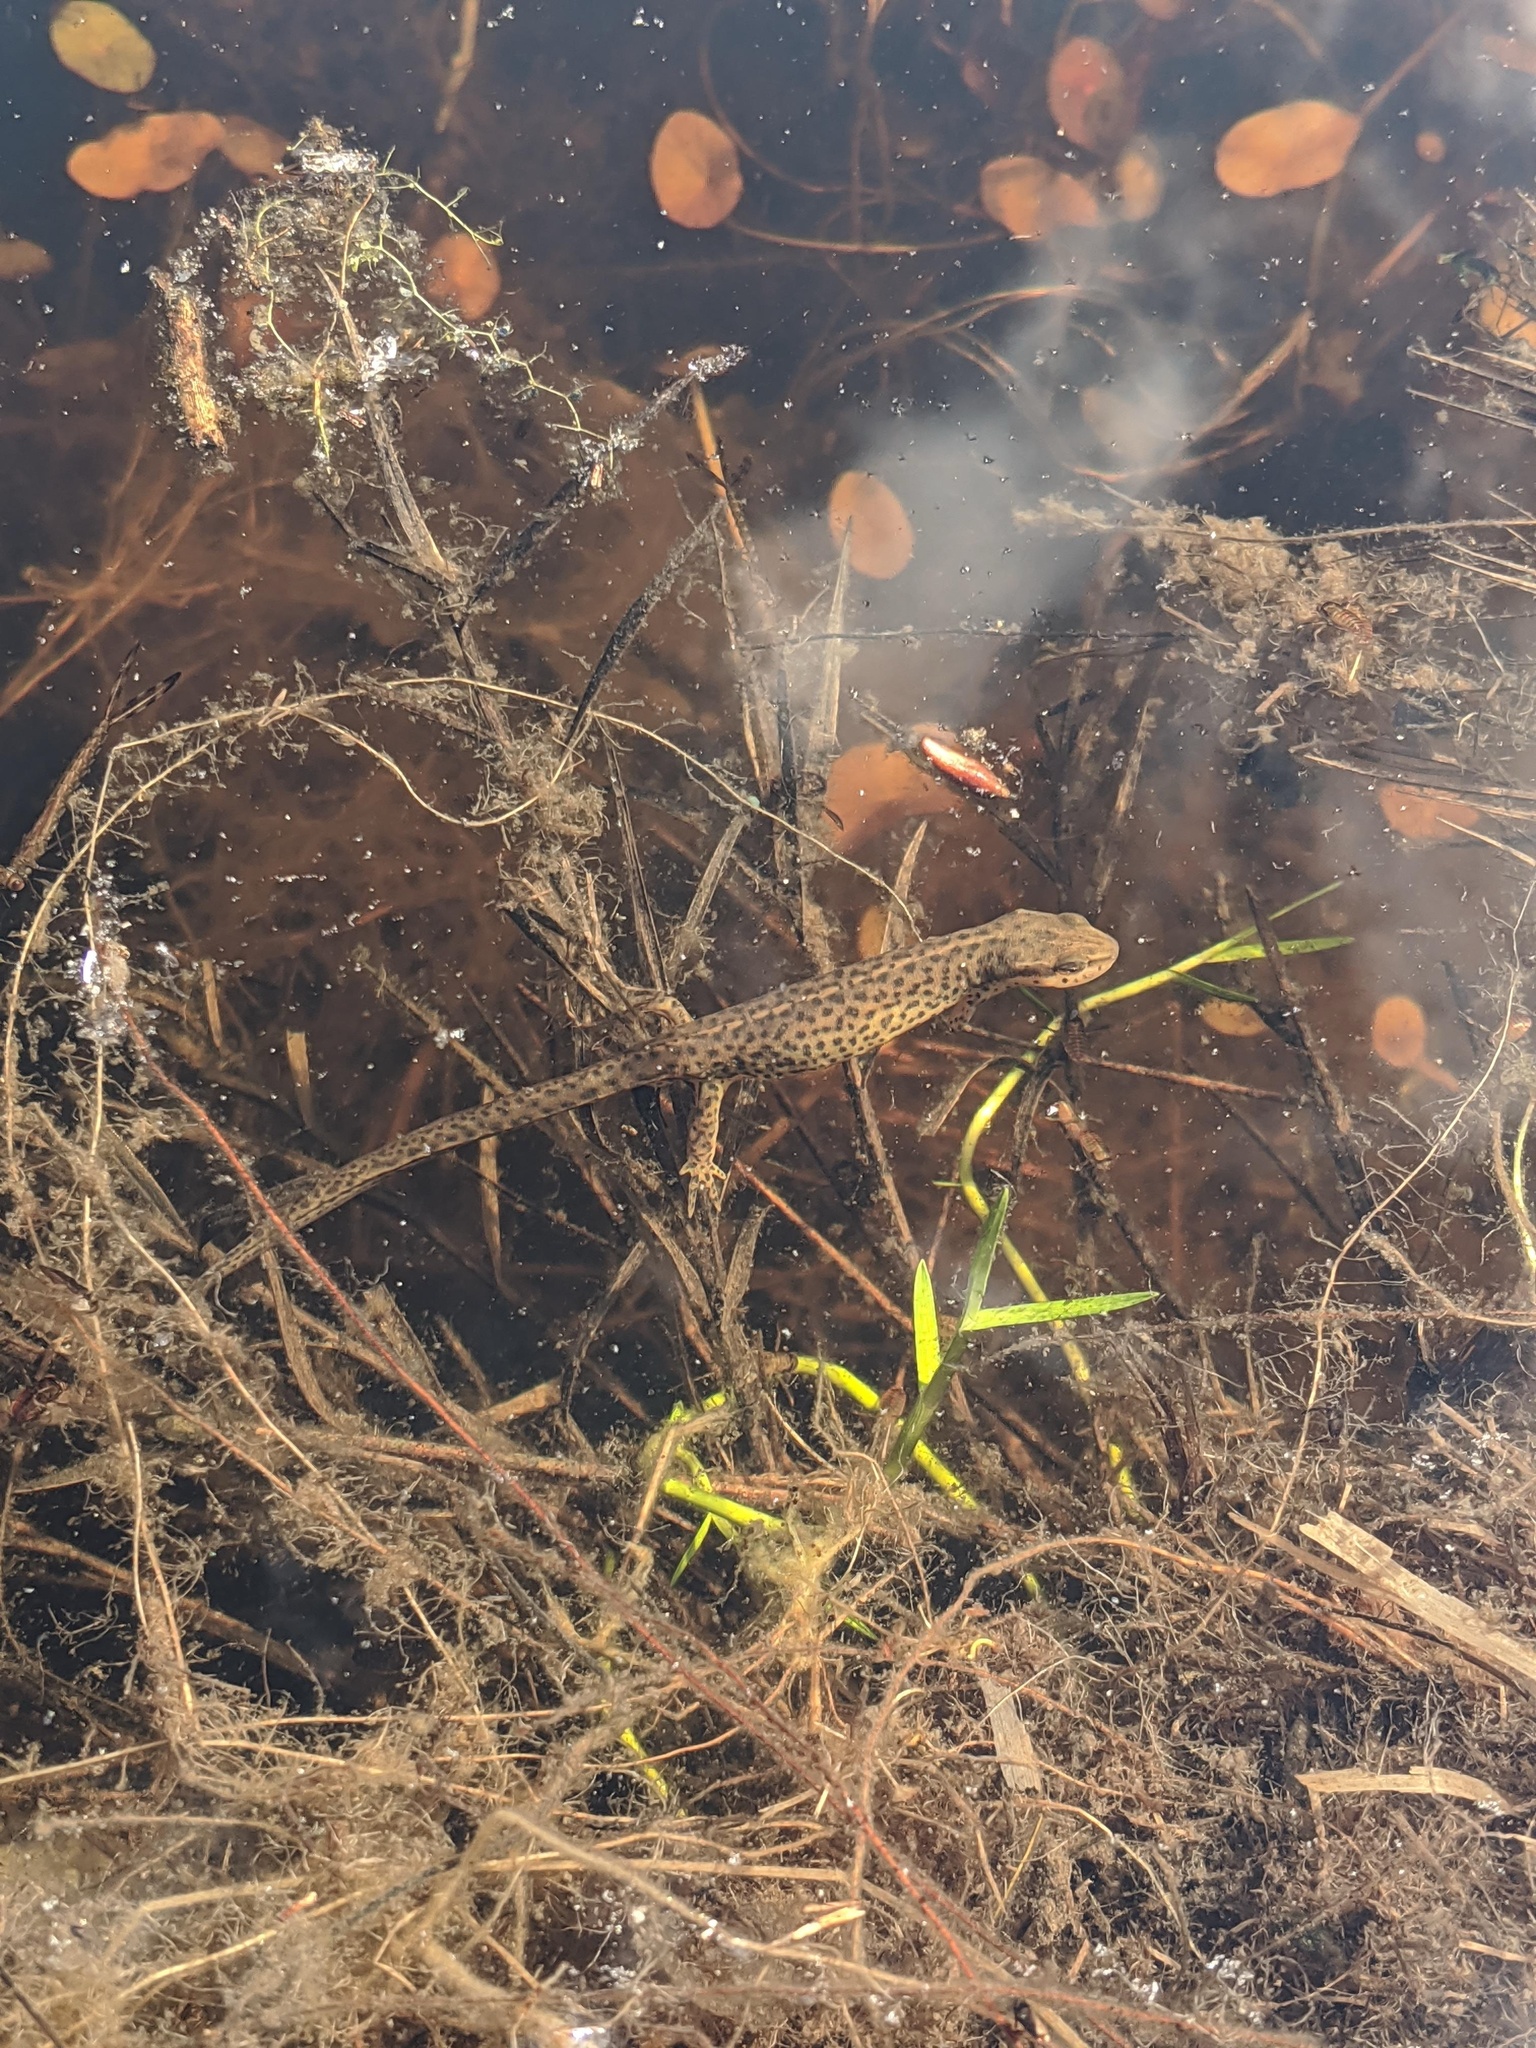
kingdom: Animalia
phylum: Chordata
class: Amphibia
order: Caudata
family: Salamandridae
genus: Notophthalmus
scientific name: Notophthalmus viridescens
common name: Eastern newt
